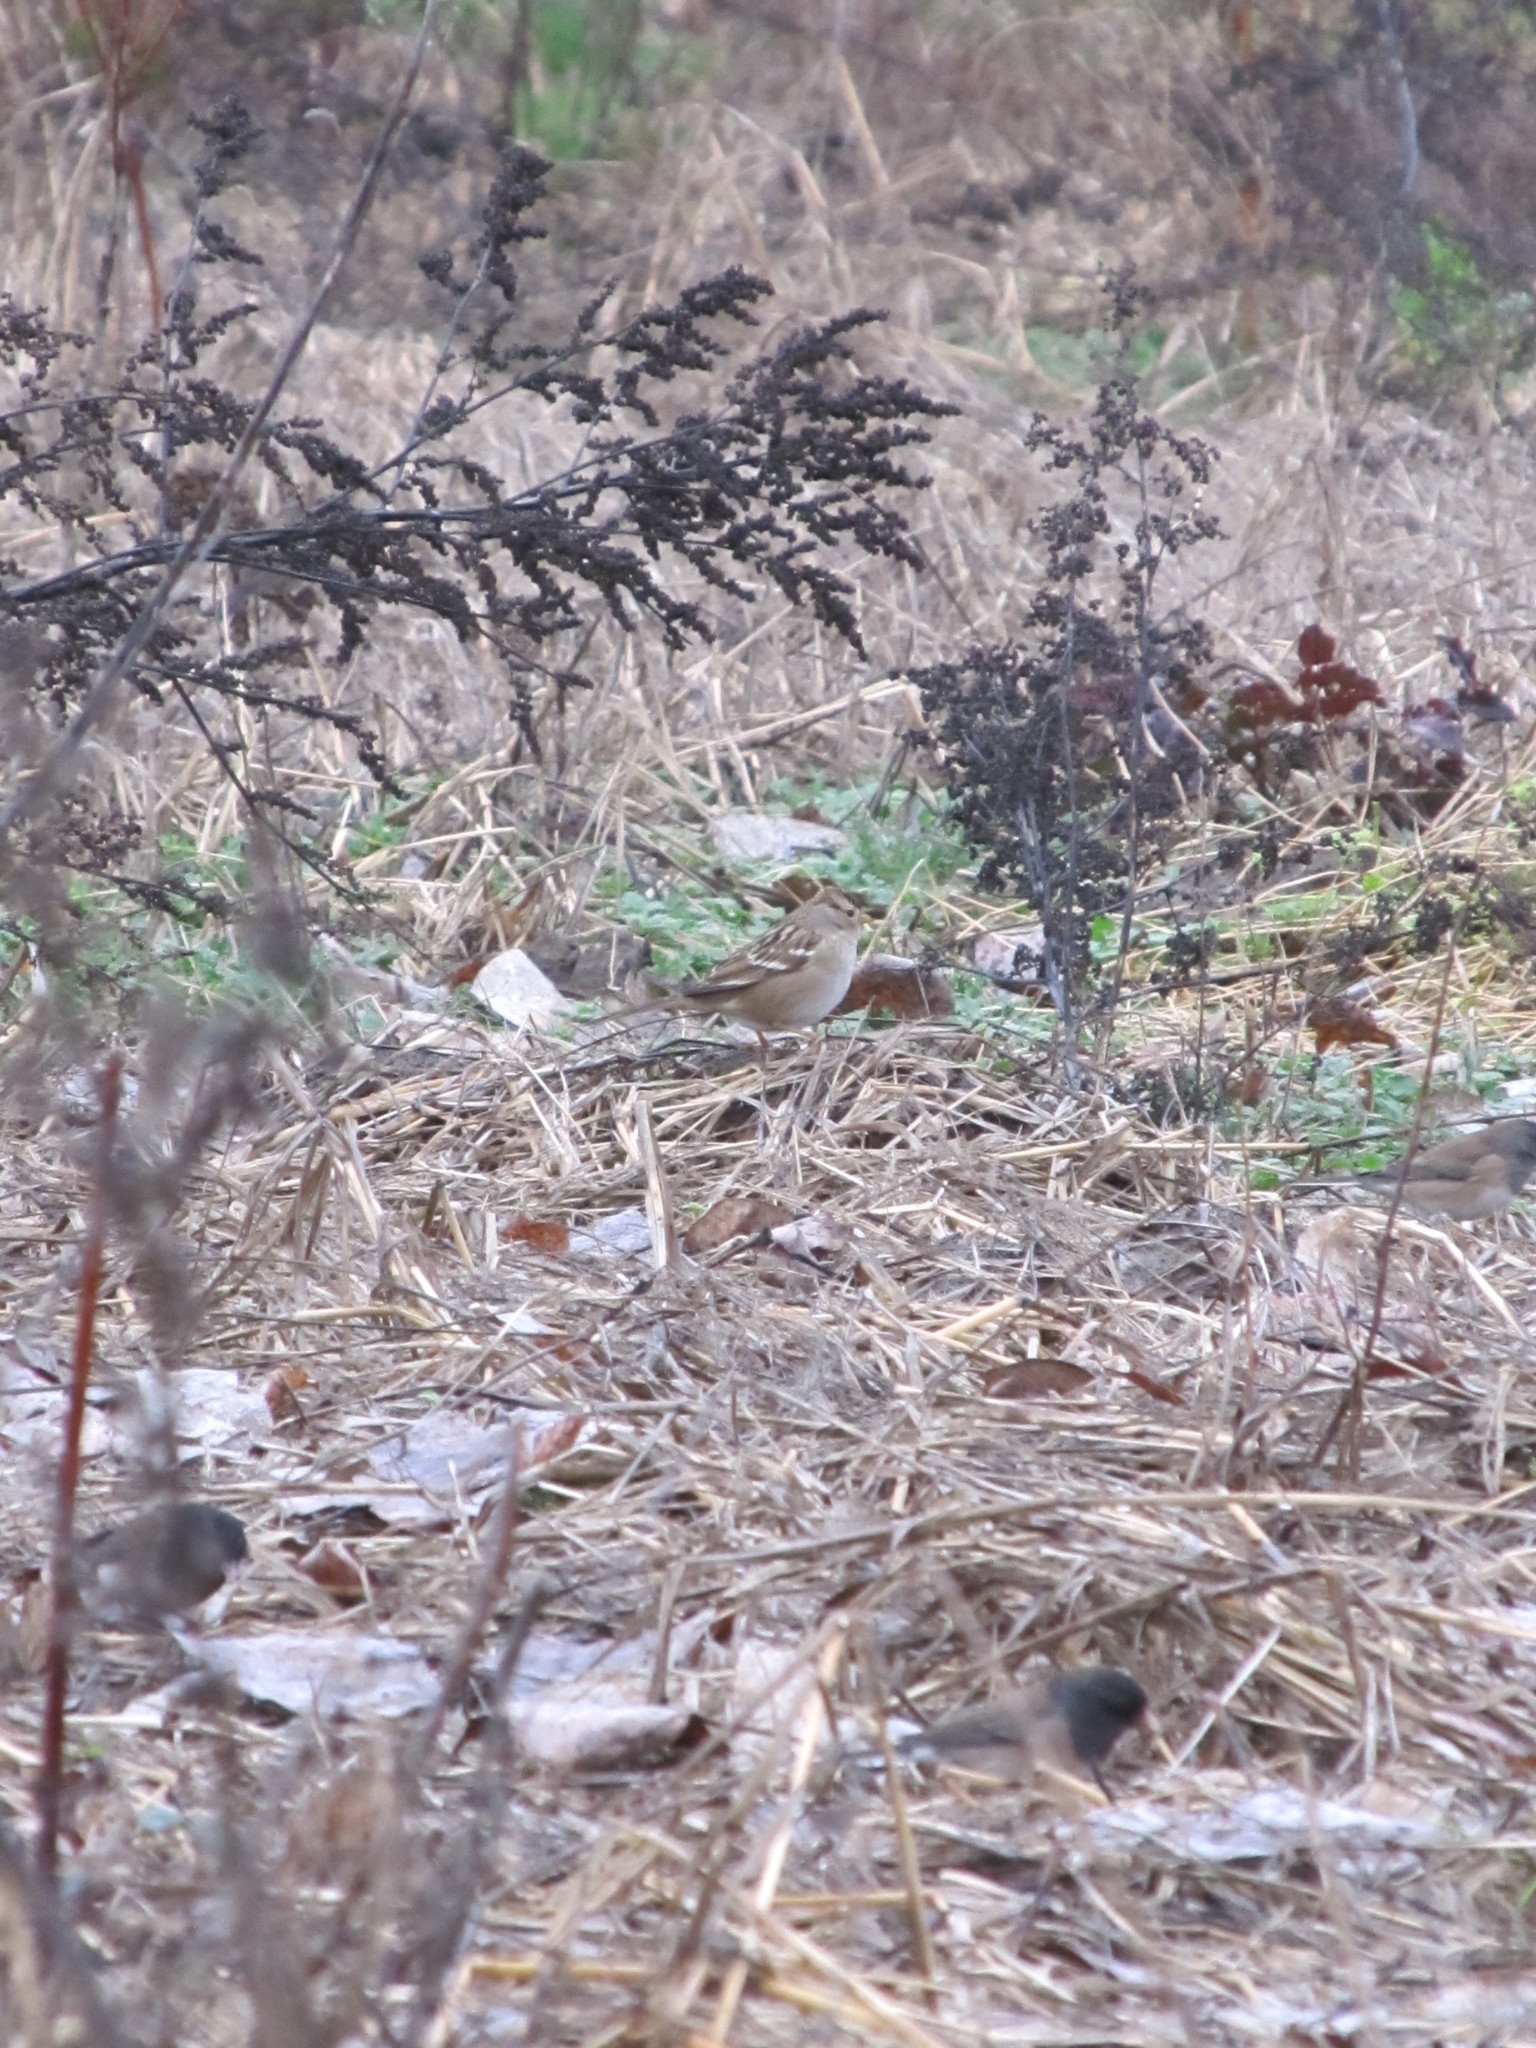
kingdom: Animalia
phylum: Chordata
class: Aves
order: Passeriformes
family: Passerellidae
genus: Junco
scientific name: Junco hyemalis
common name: Dark-eyed junco
